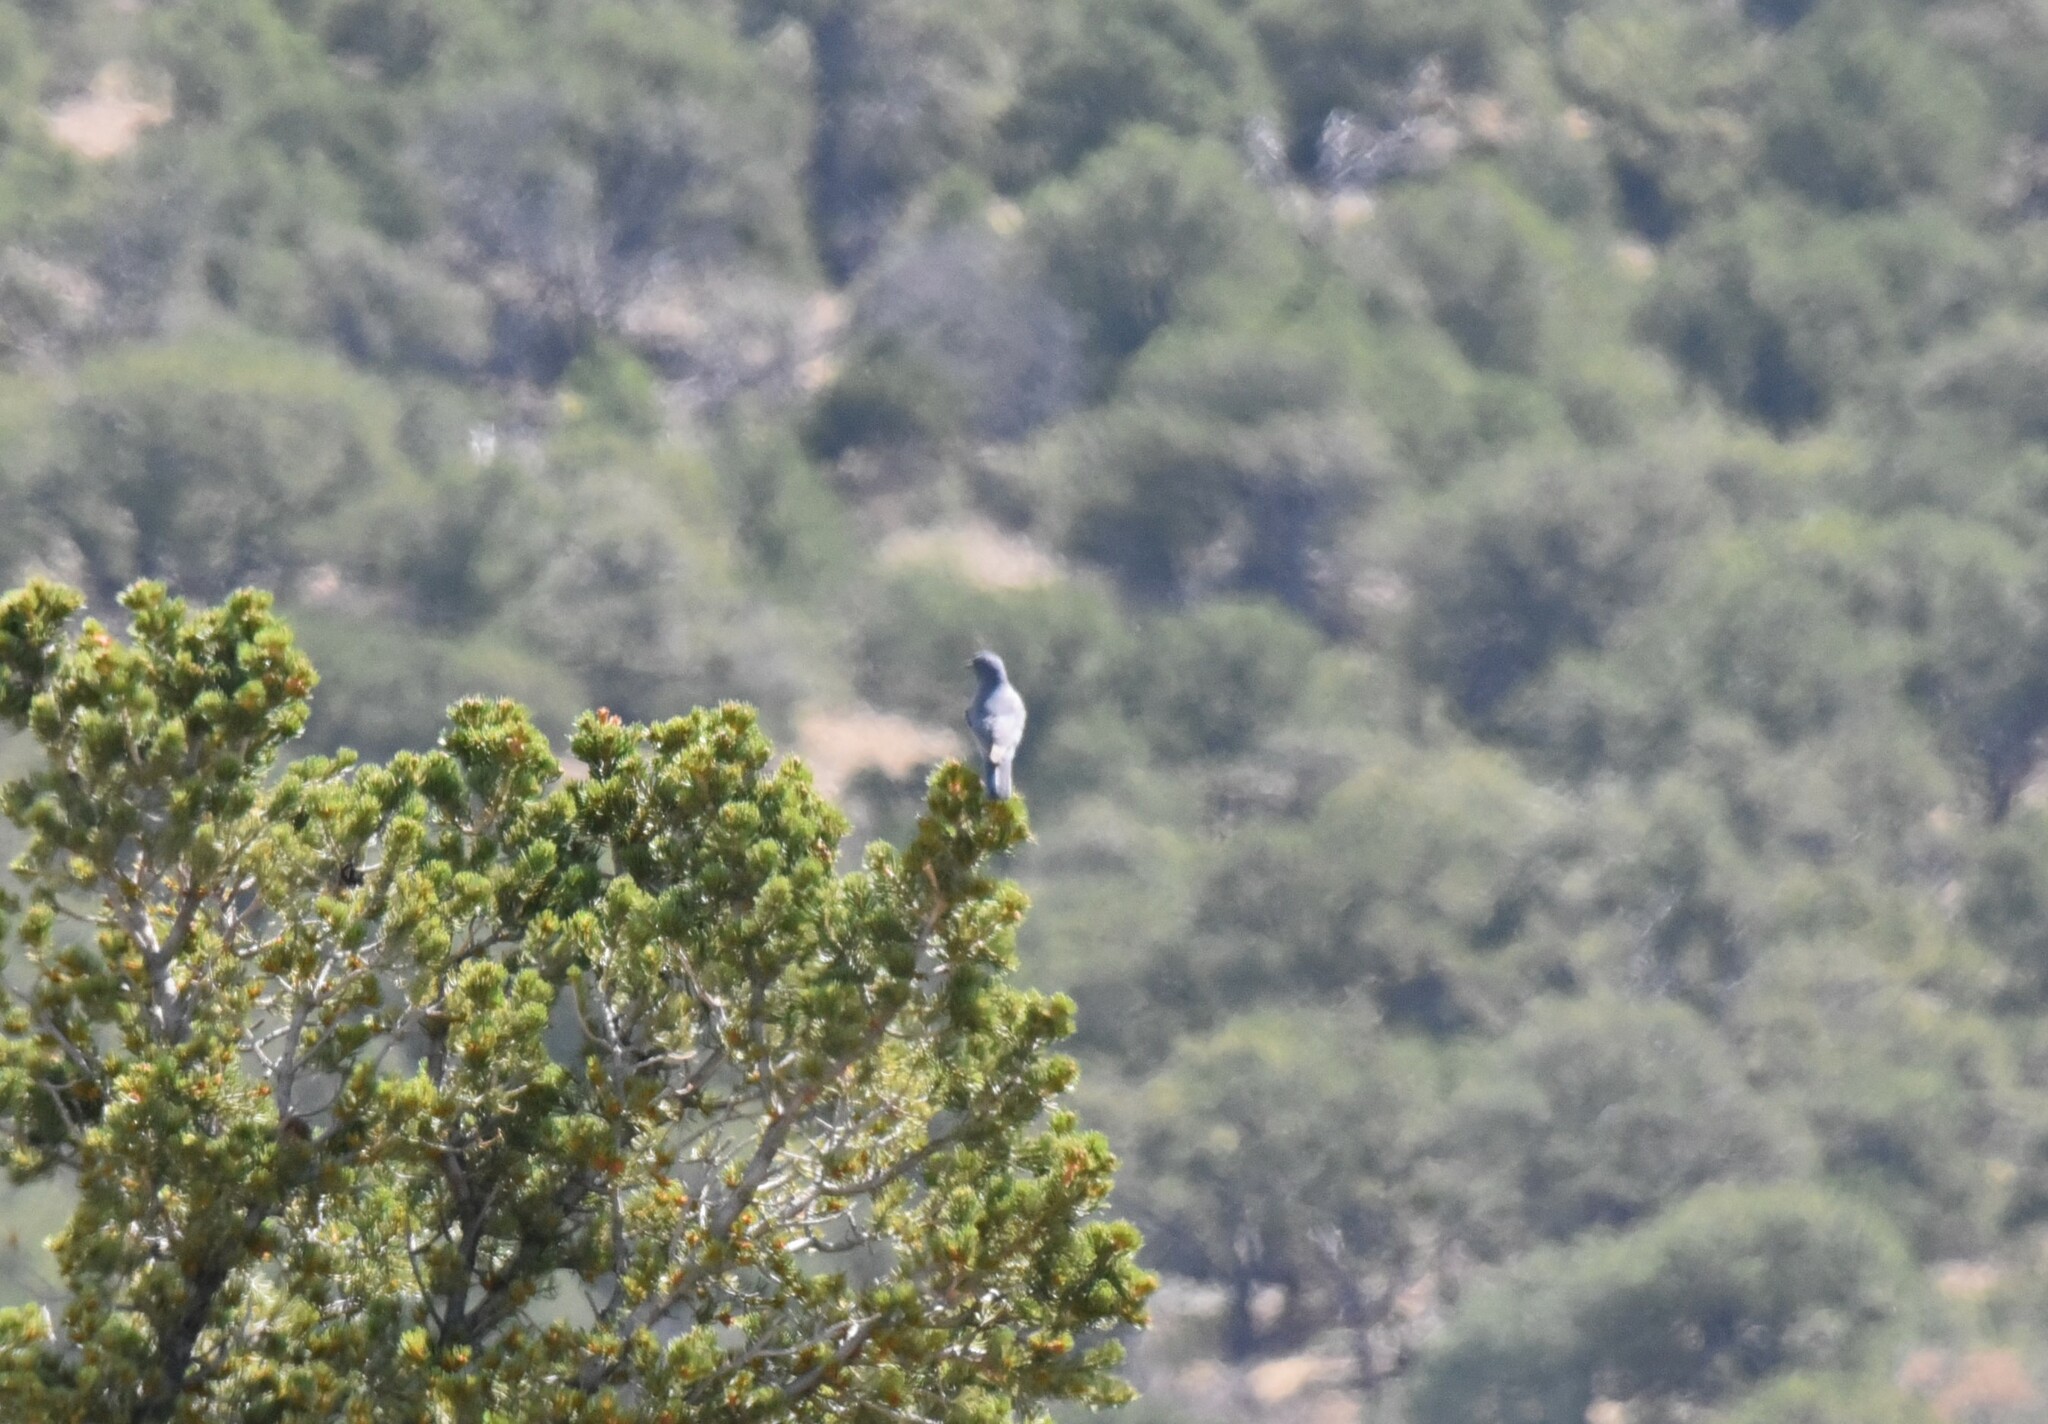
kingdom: Animalia
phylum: Chordata
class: Aves
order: Passeriformes
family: Corvidae
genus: Gymnorhinus
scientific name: Gymnorhinus cyanocephalus
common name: Pinyon jay
